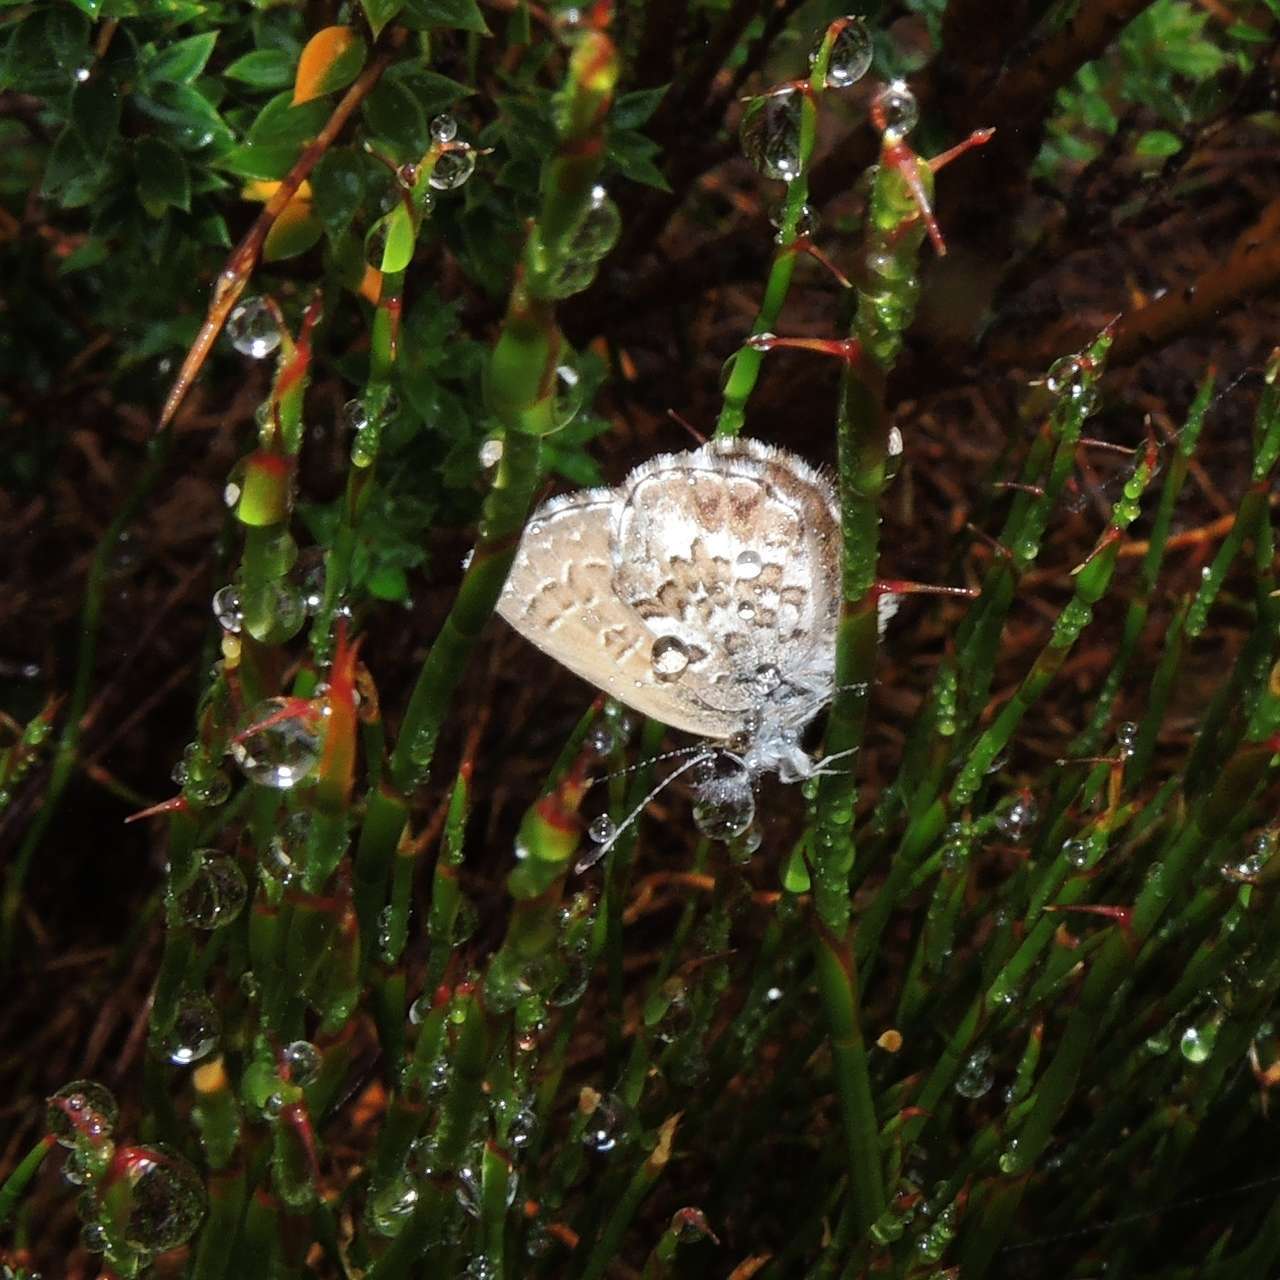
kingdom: Animalia
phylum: Arthropoda
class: Insecta
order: Lepidoptera
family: Lycaenidae
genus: Neolucia
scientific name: Neolucia hobartensis
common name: Mountain blue
